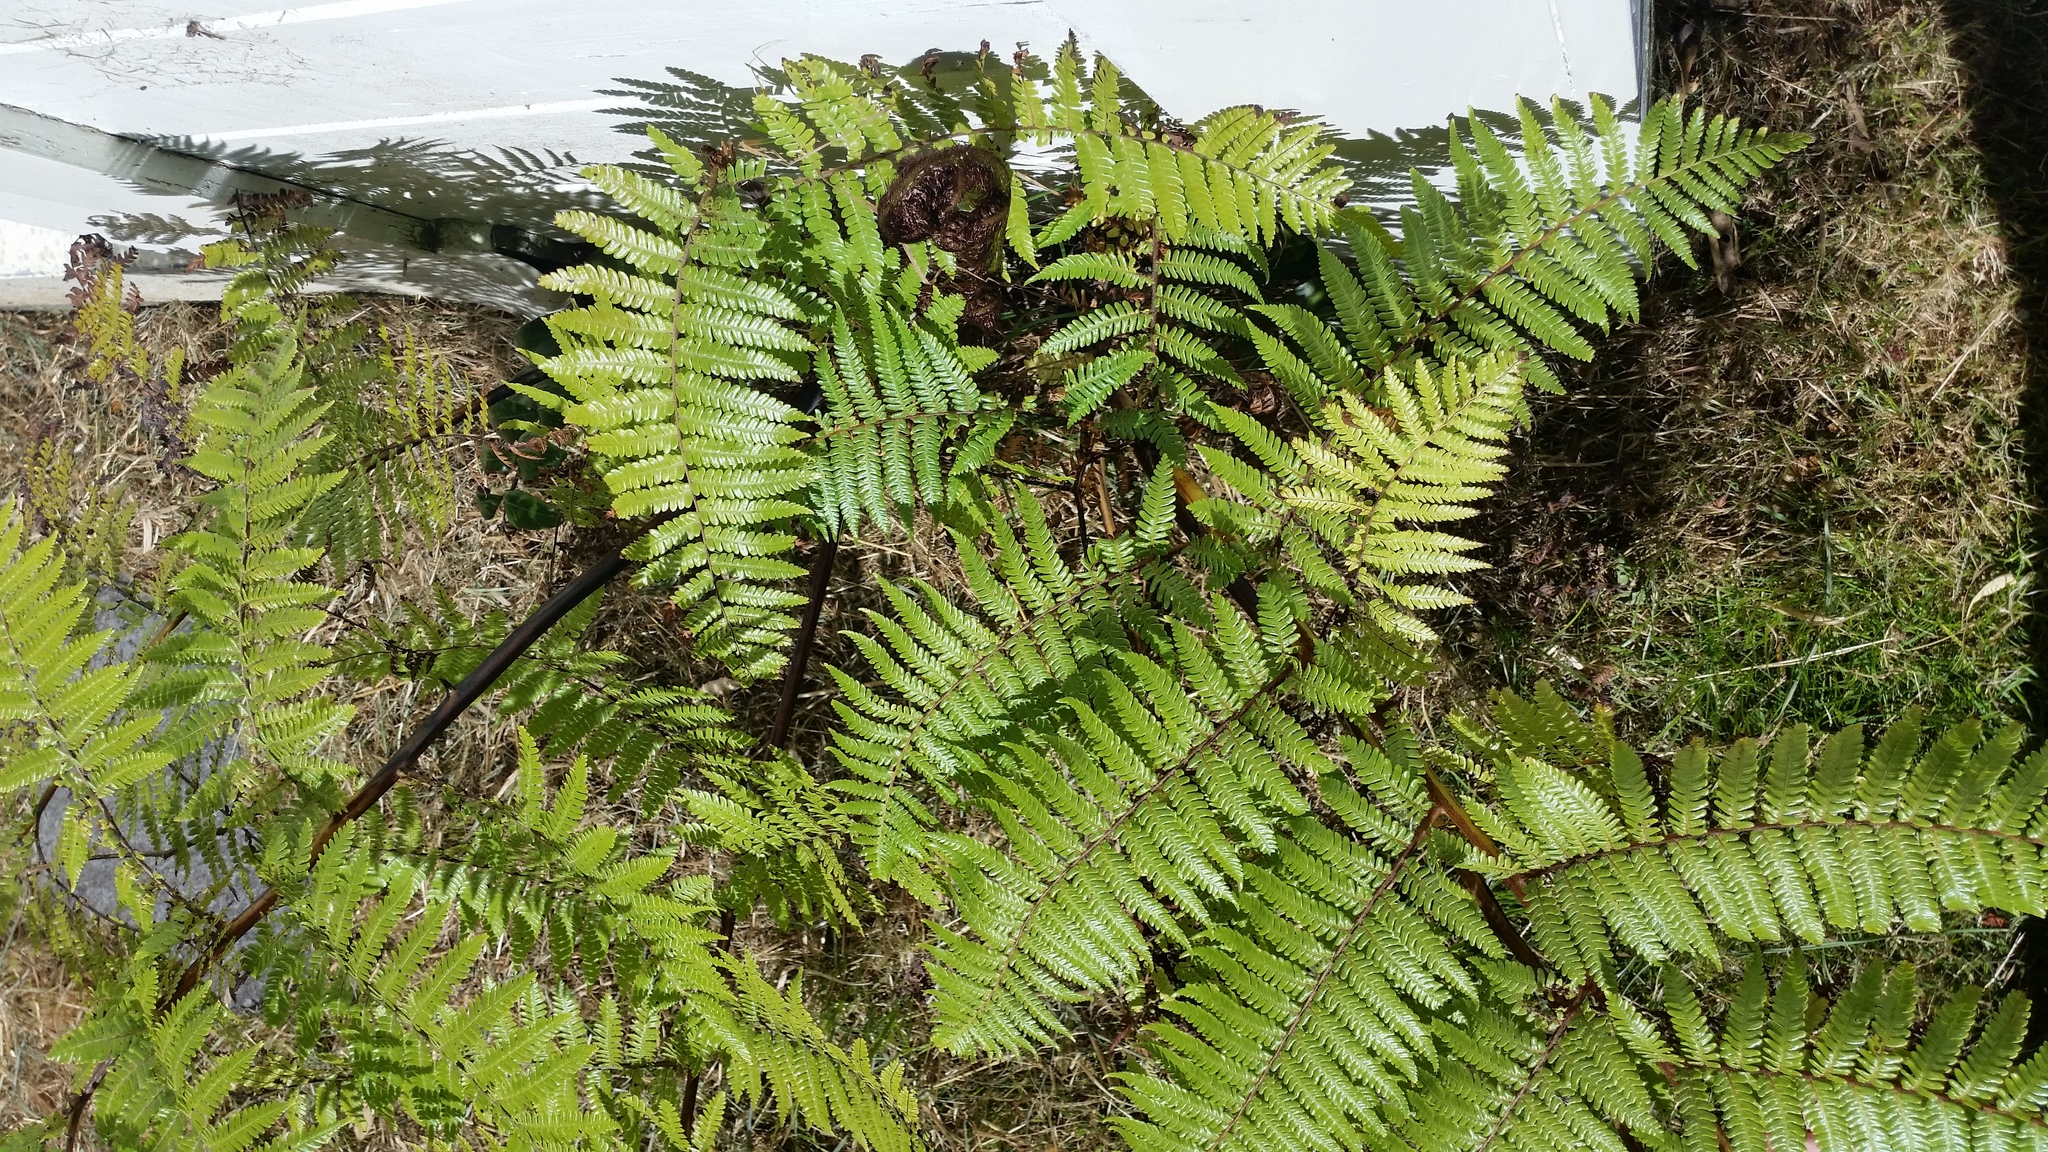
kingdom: Plantae
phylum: Tracheophyta
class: Polypodiopsida
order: Cyatheales
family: Cyatheaceae
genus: Sphaeropteris
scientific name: Sphaeropteris medullaris
